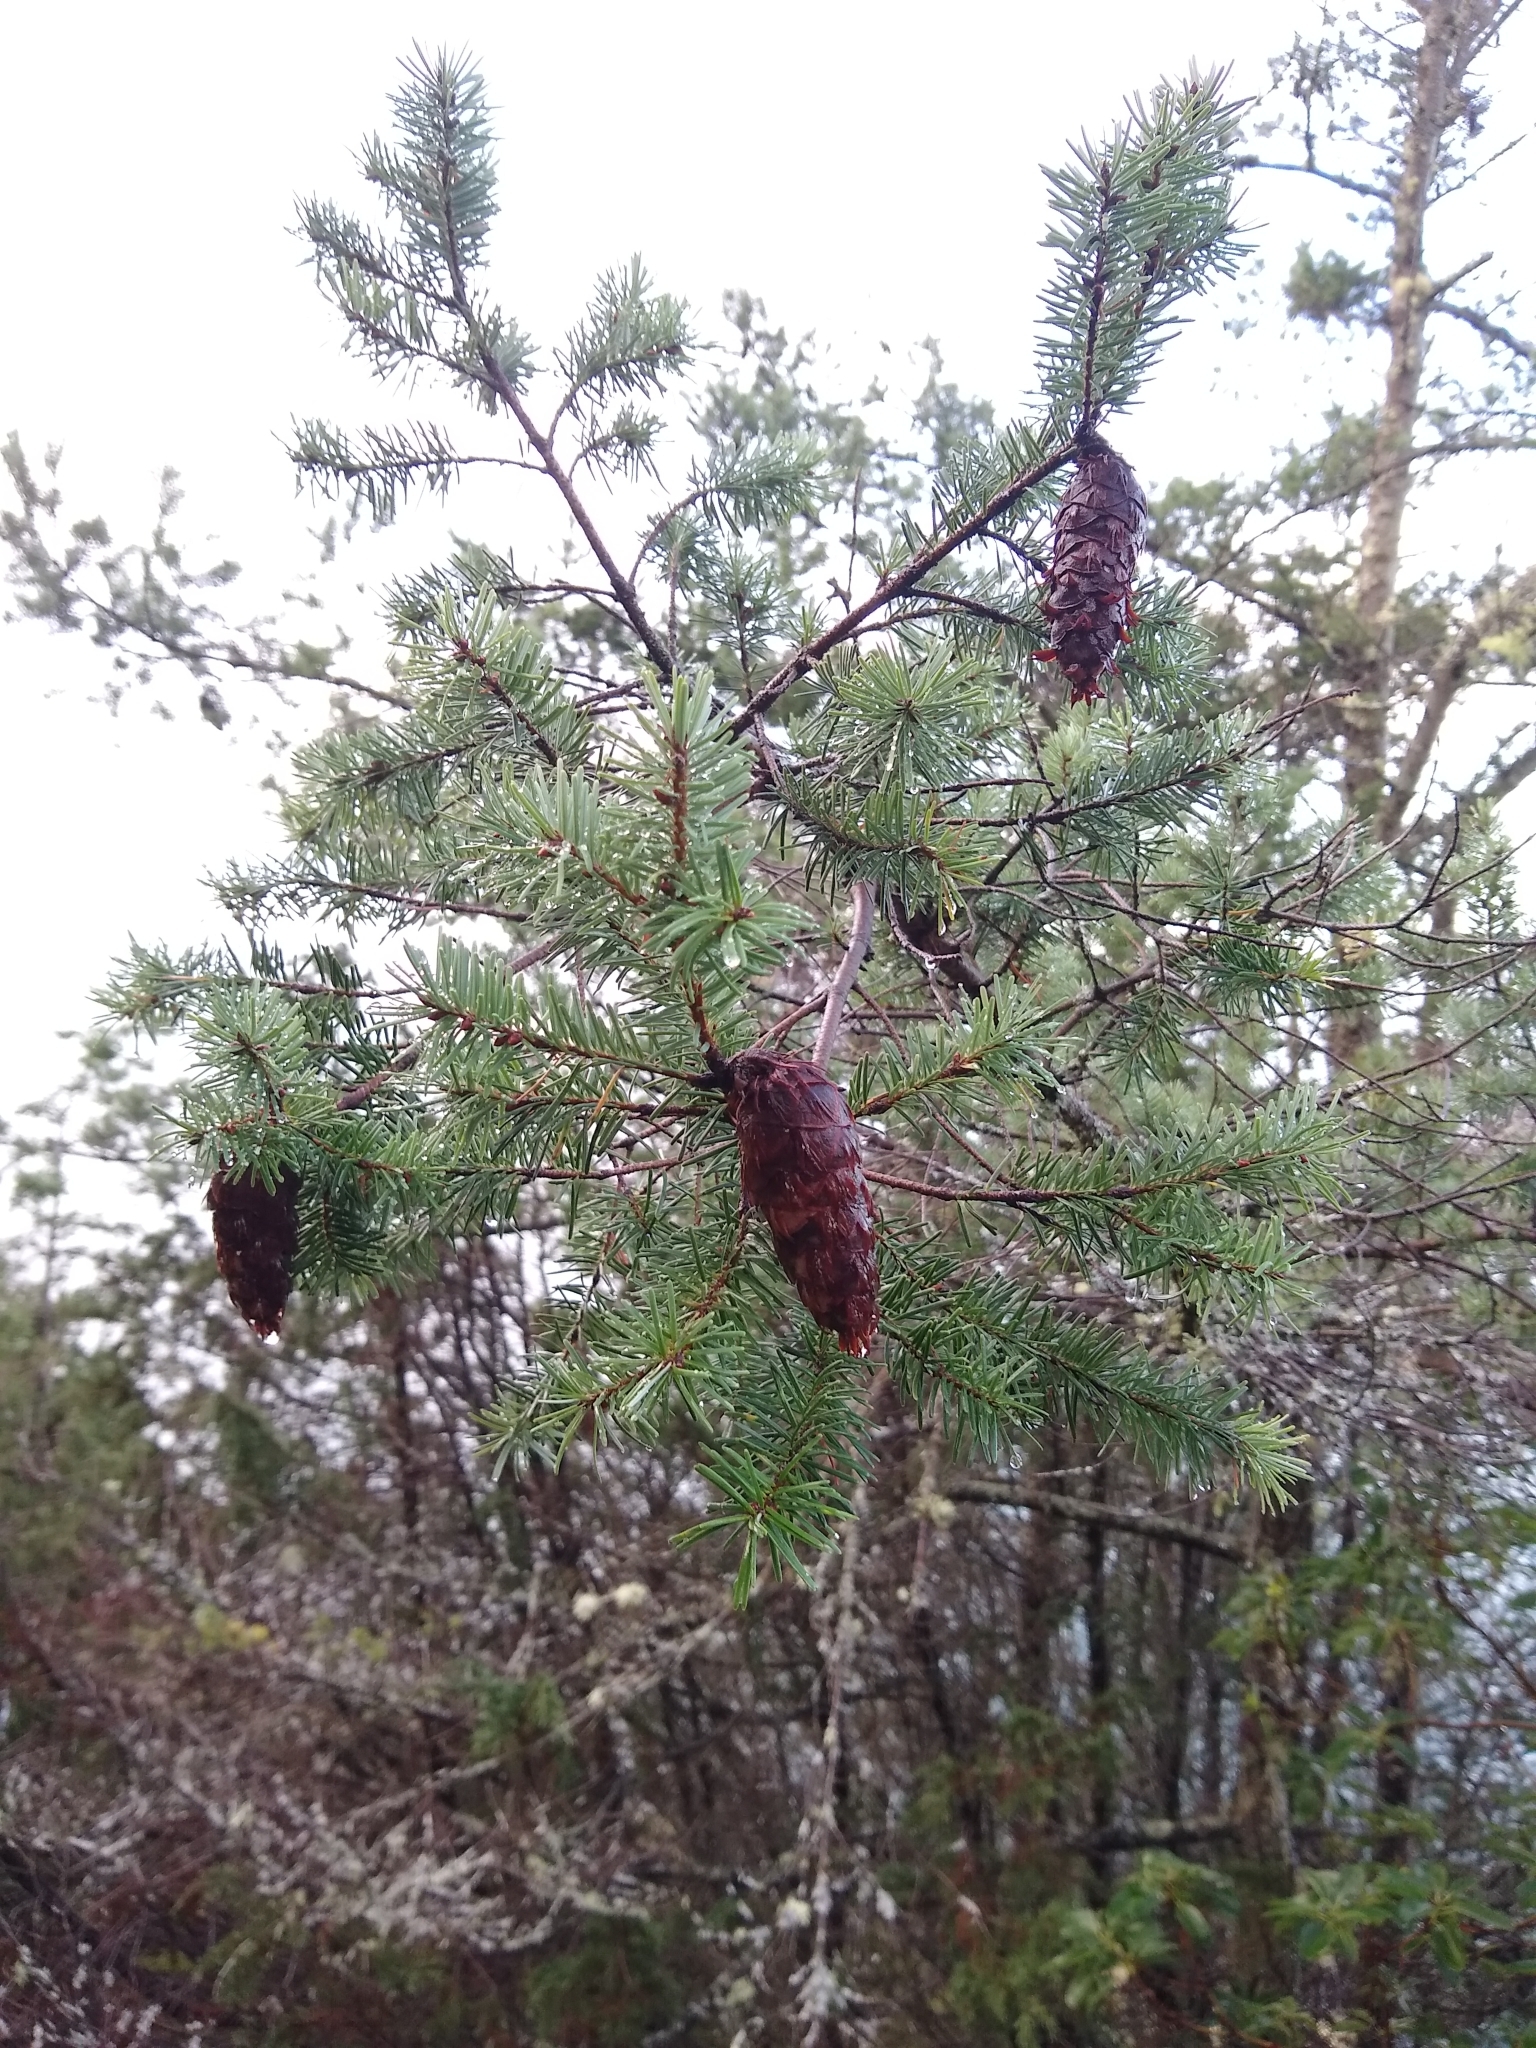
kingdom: Plantae
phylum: Tracheophyta
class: Pinopsida
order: Pinales
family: Pinaceae
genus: Pseudotsuga
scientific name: Pseudotsuga menziesii
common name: Douglas fir
